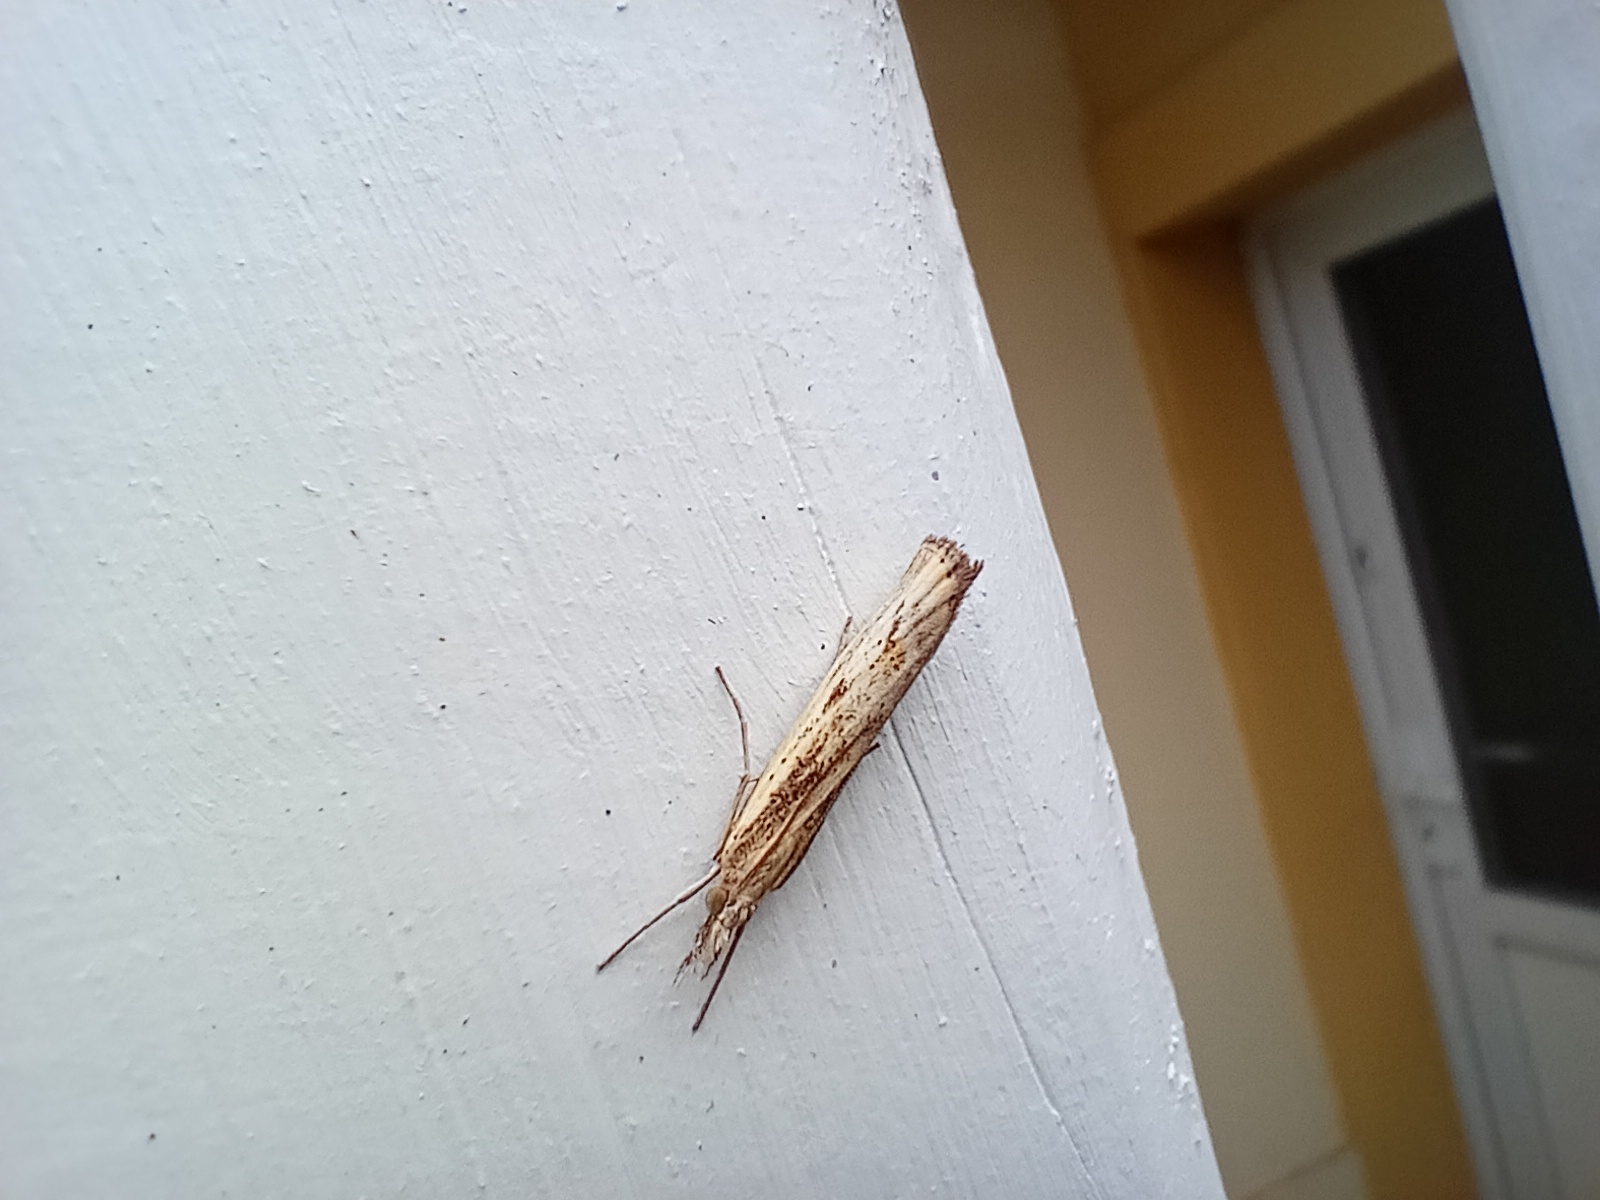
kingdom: Animalia
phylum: Arthropoda
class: Insecta
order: Lepidoptera
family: Crambidae
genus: Agriphila
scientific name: Agriphila inquinatella
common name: Barred grass-veneer
